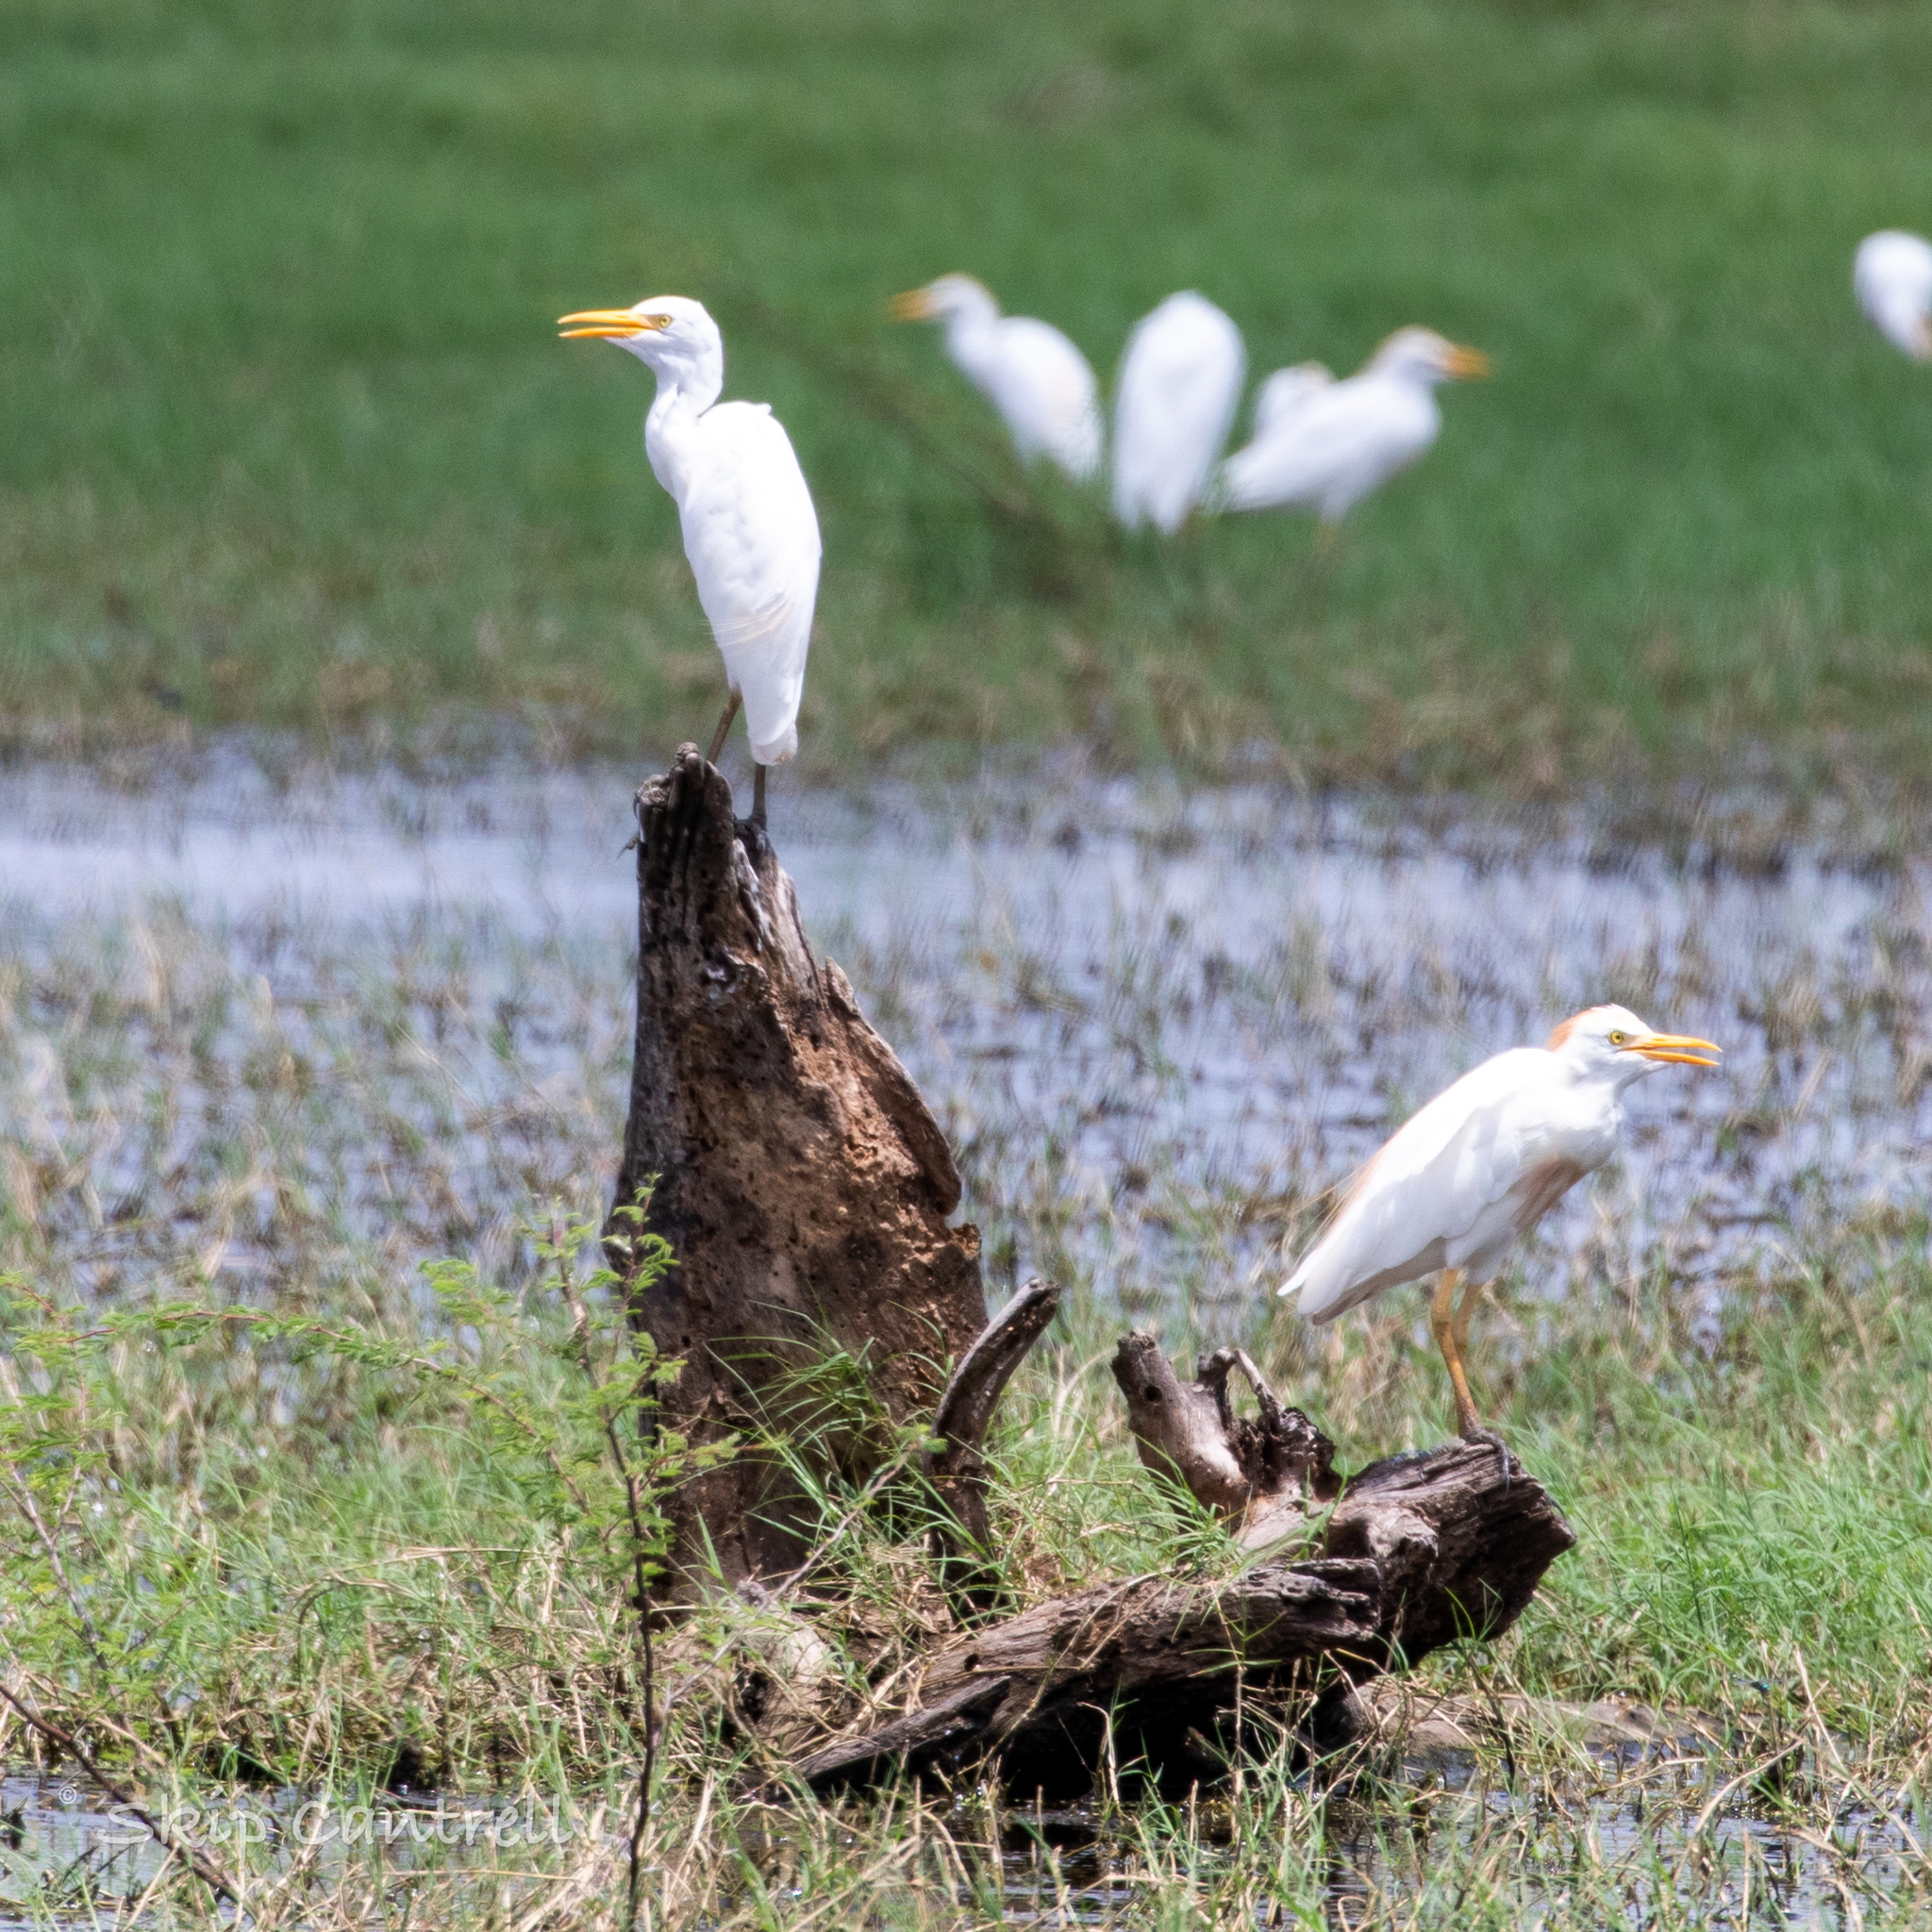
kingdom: Animalia
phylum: Chordata
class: Aves
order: Pelecaniformes
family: Ardeidae
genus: Bubulcus
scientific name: Bubulcus ibis
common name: Cattle egret
